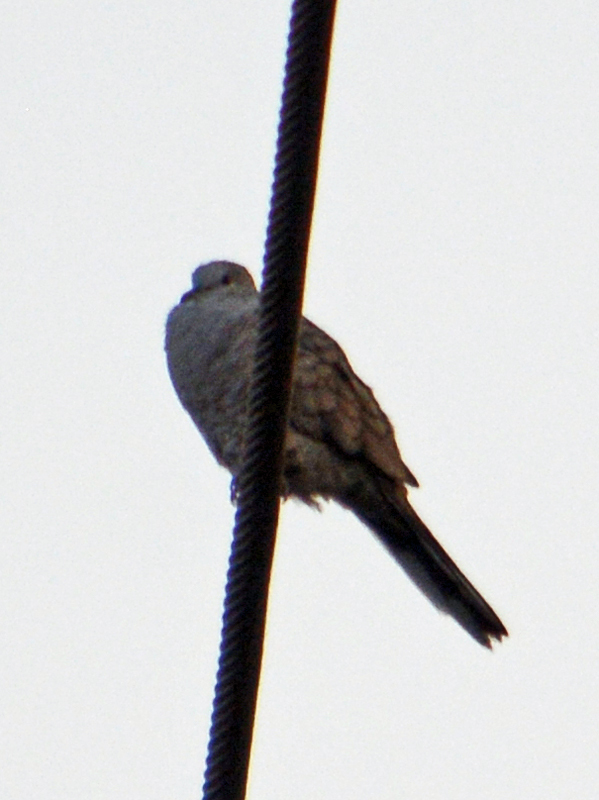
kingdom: Animalia
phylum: Chordata
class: Aves
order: Columbiformes
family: Columbidae
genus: Columbina
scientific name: Columbina inca
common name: Inca dove
